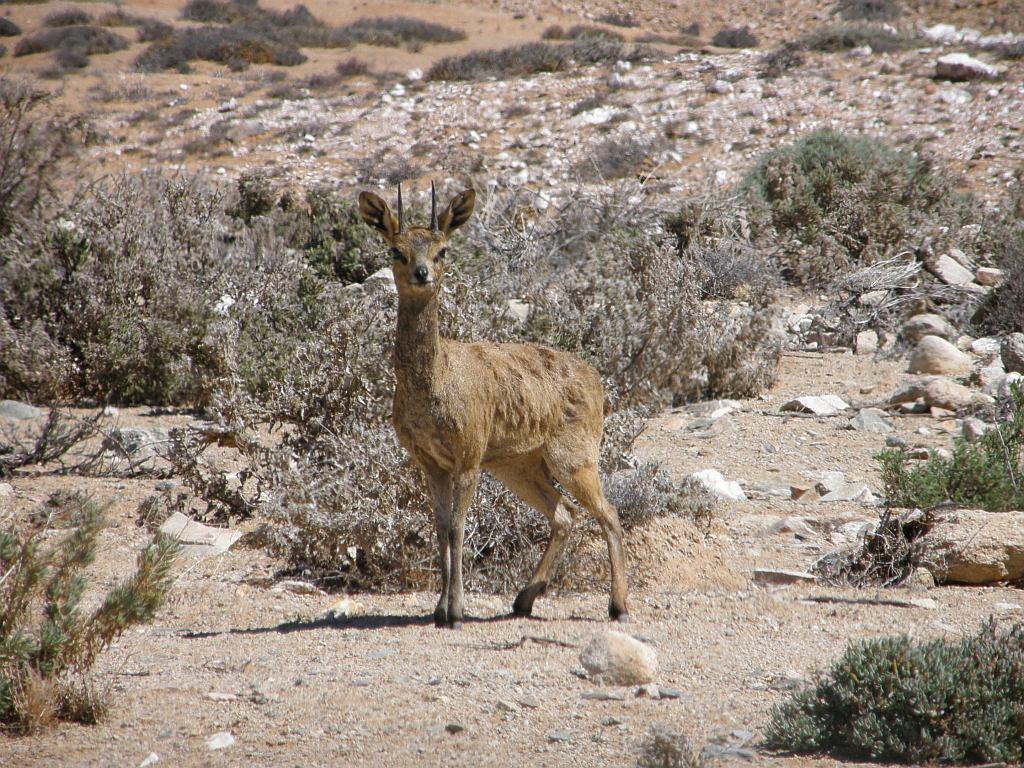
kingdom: Animalia
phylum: Chordata
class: Mammalia
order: Artiodactyla
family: Bovidae
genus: Oreotragus
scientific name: Oreotragus oreotragus
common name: Klipspringer
